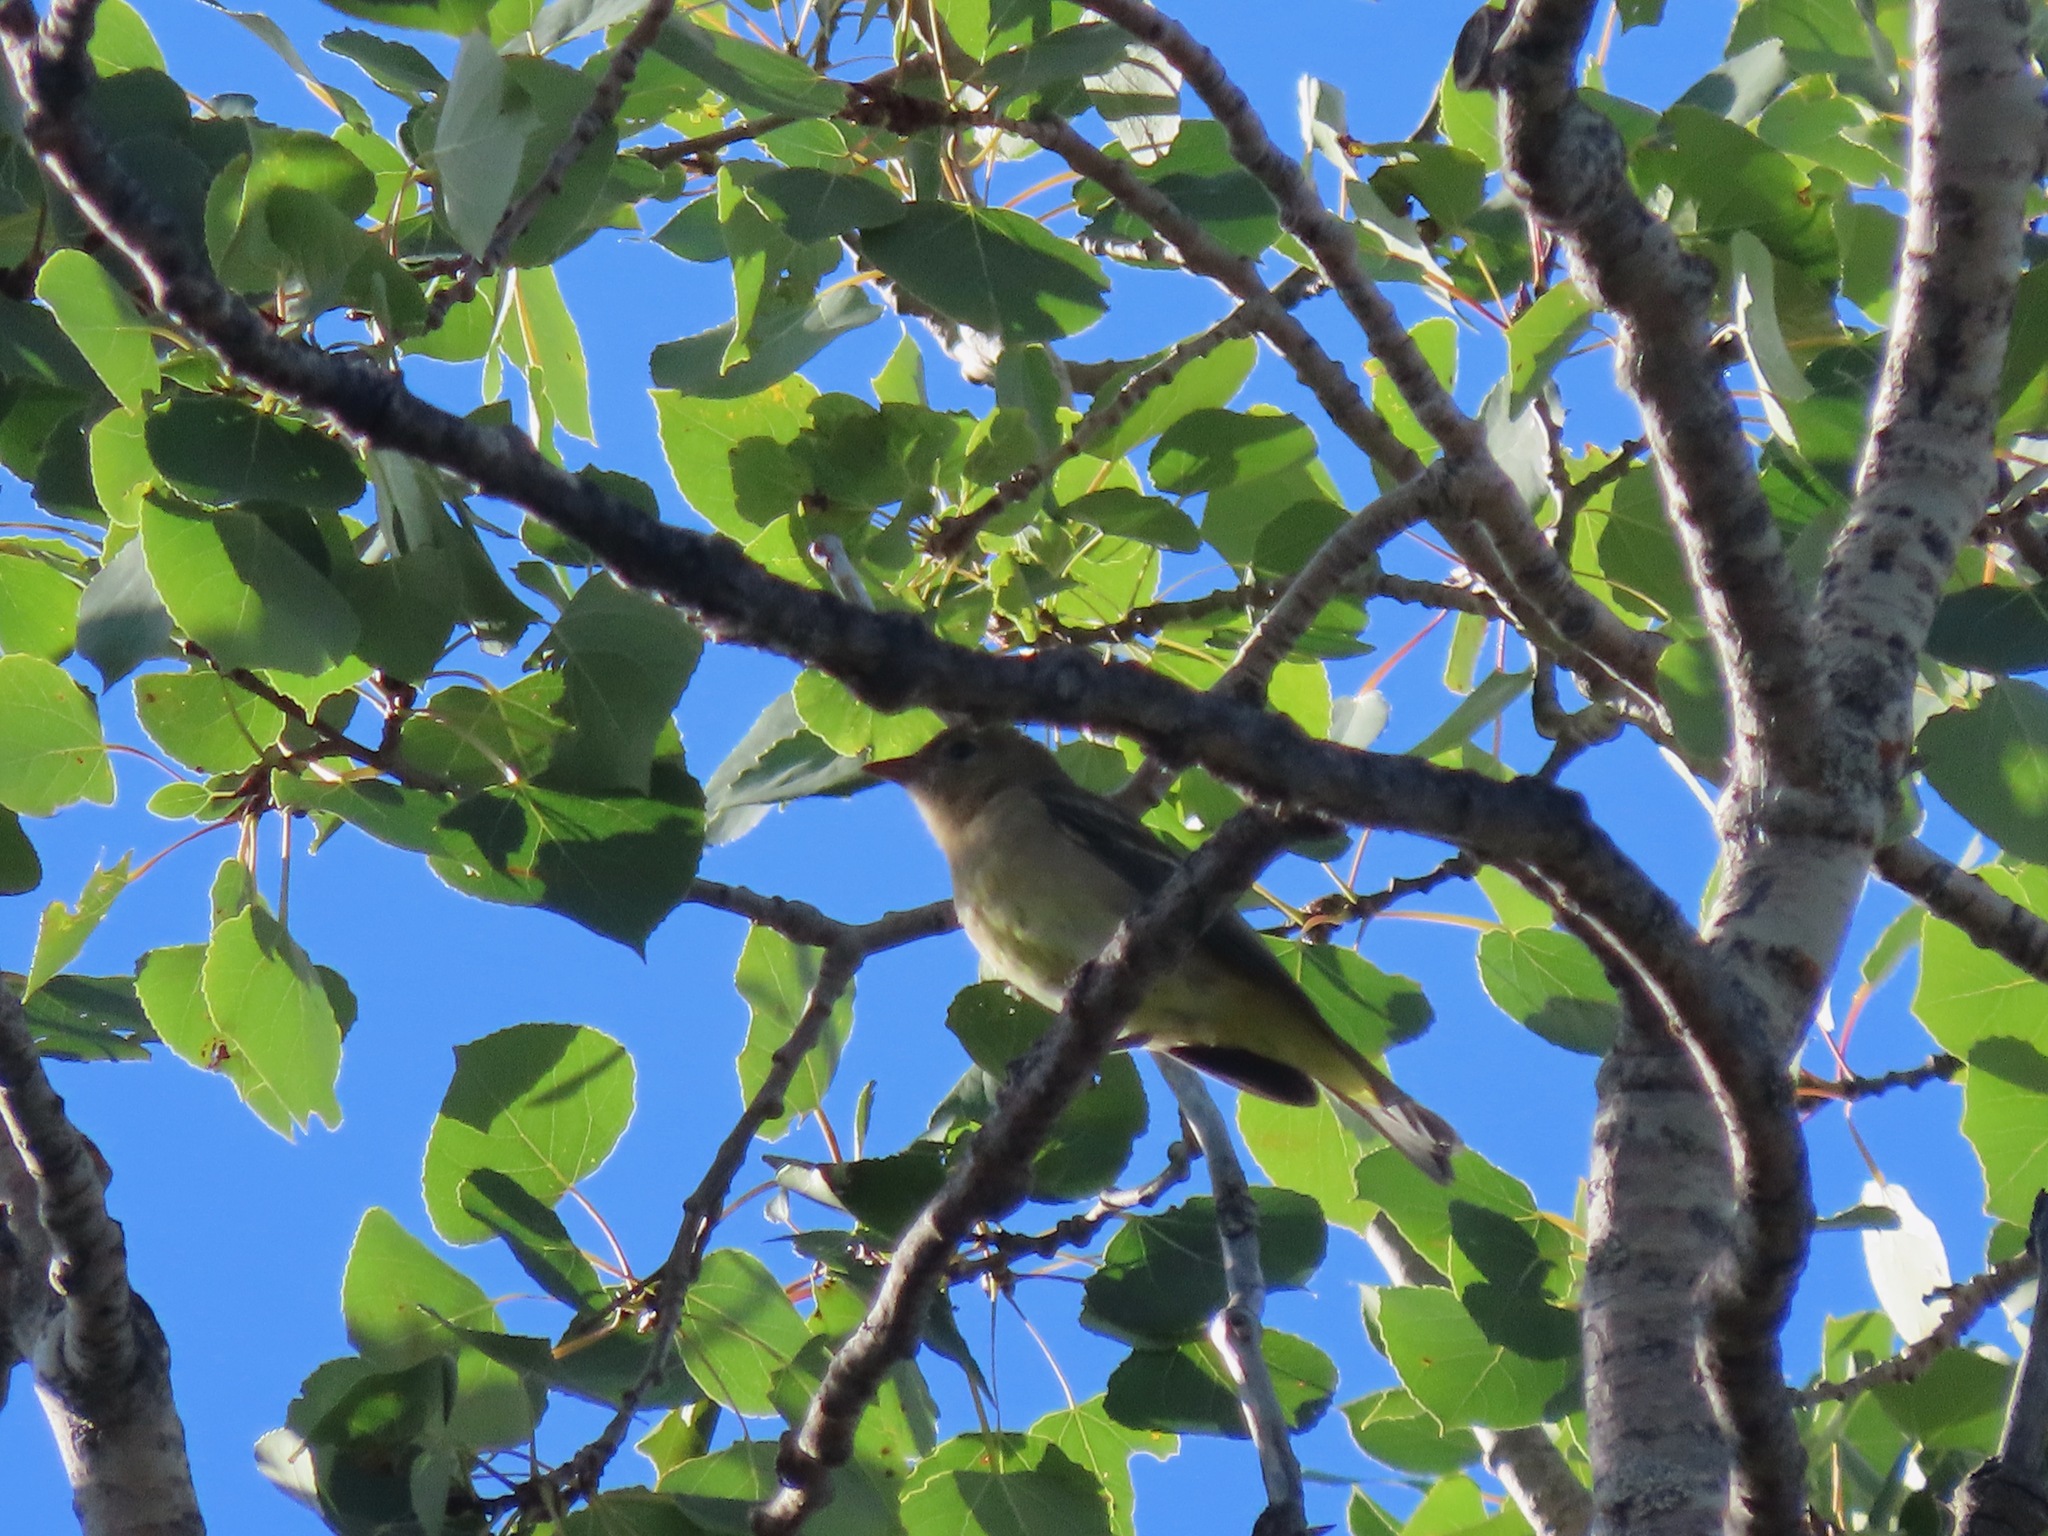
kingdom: Animalia
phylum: Chordata
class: Aves
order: Passeriformes
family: Cardinalidae
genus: Piranga
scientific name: Piranga ludoviciana
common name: Western tanager
